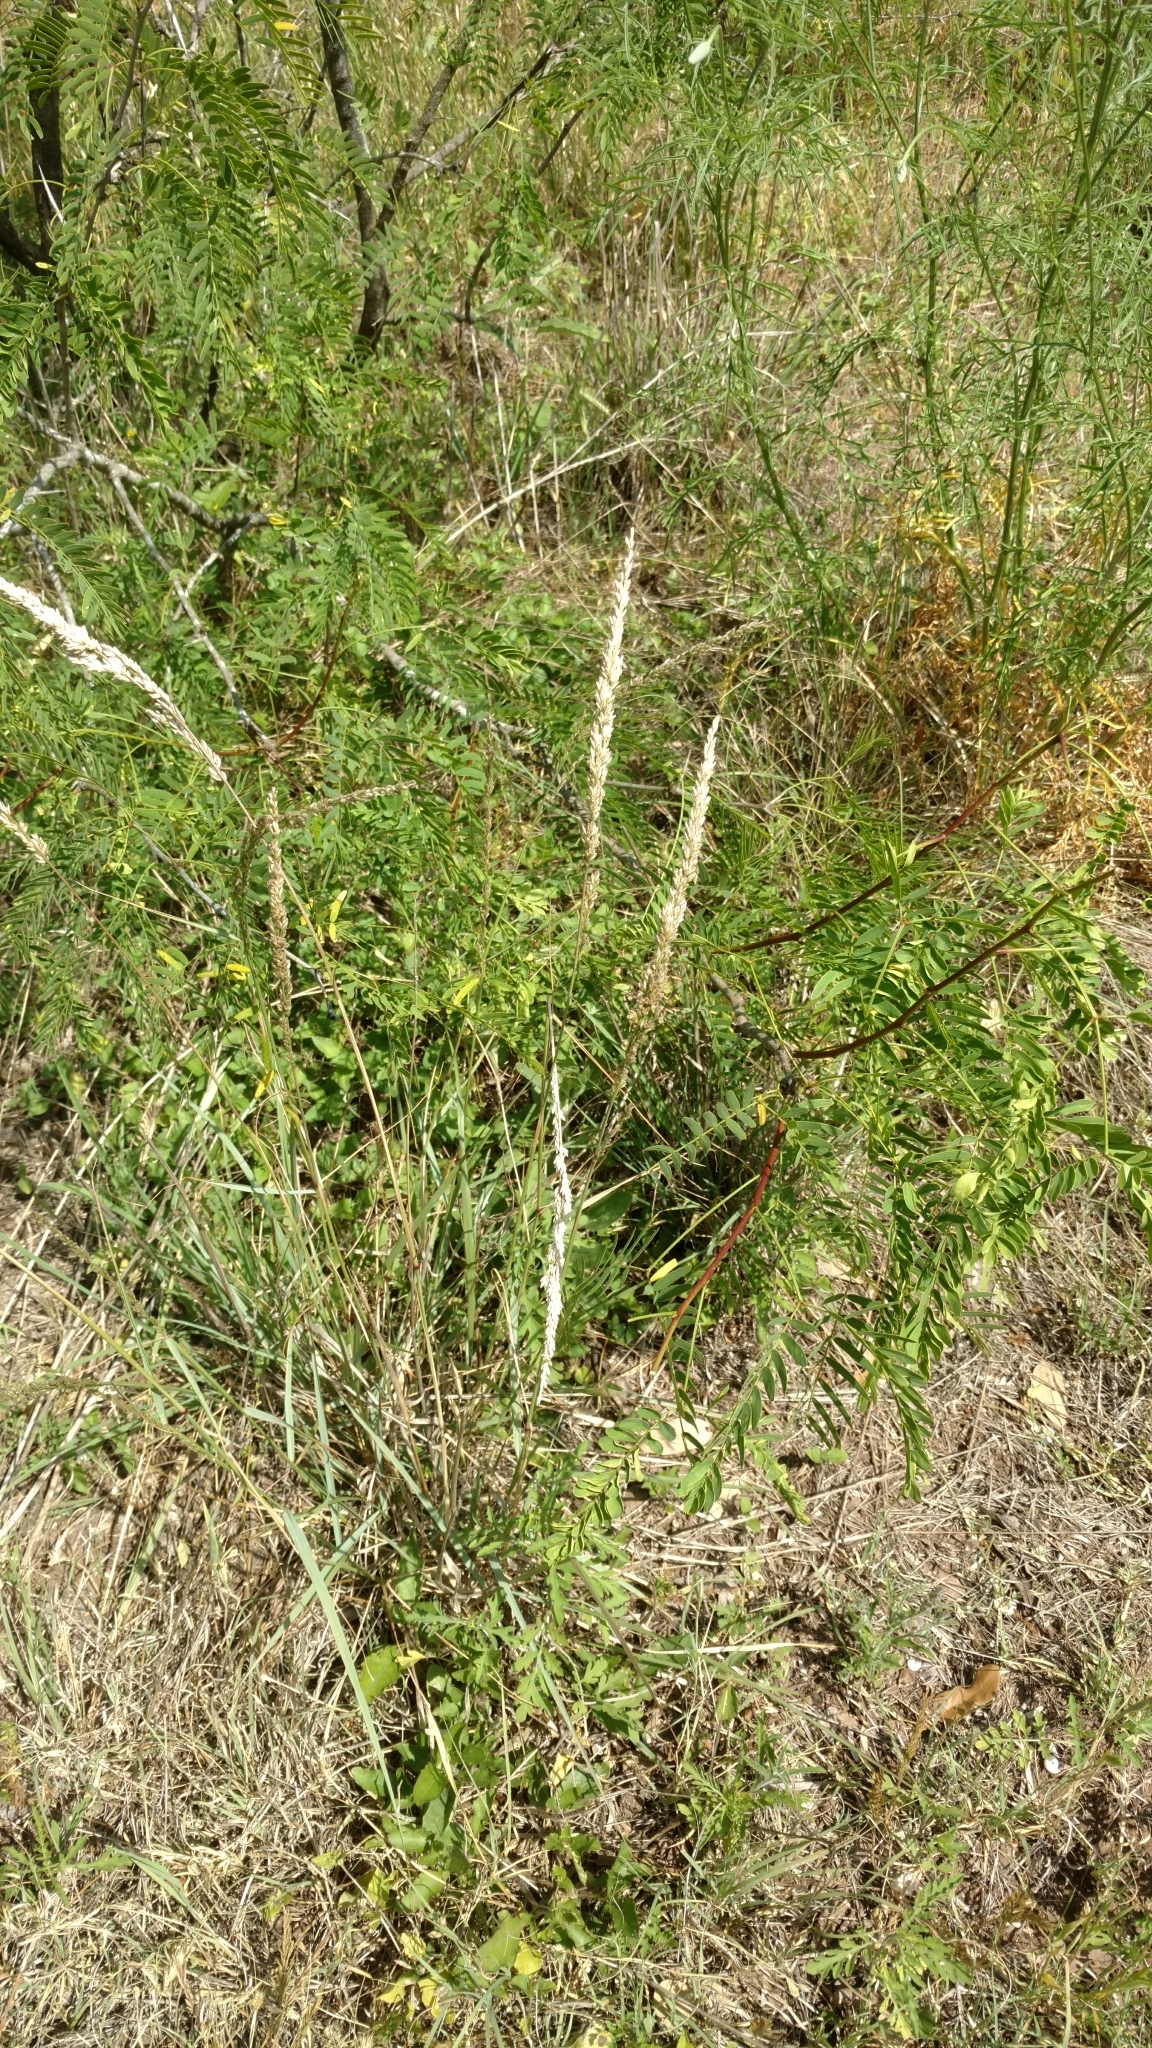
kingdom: Plantae
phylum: Tracheophyta
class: Liliopsida
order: Poales
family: Poaceae
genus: Tridens
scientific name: Tridens albescens
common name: White tridens
